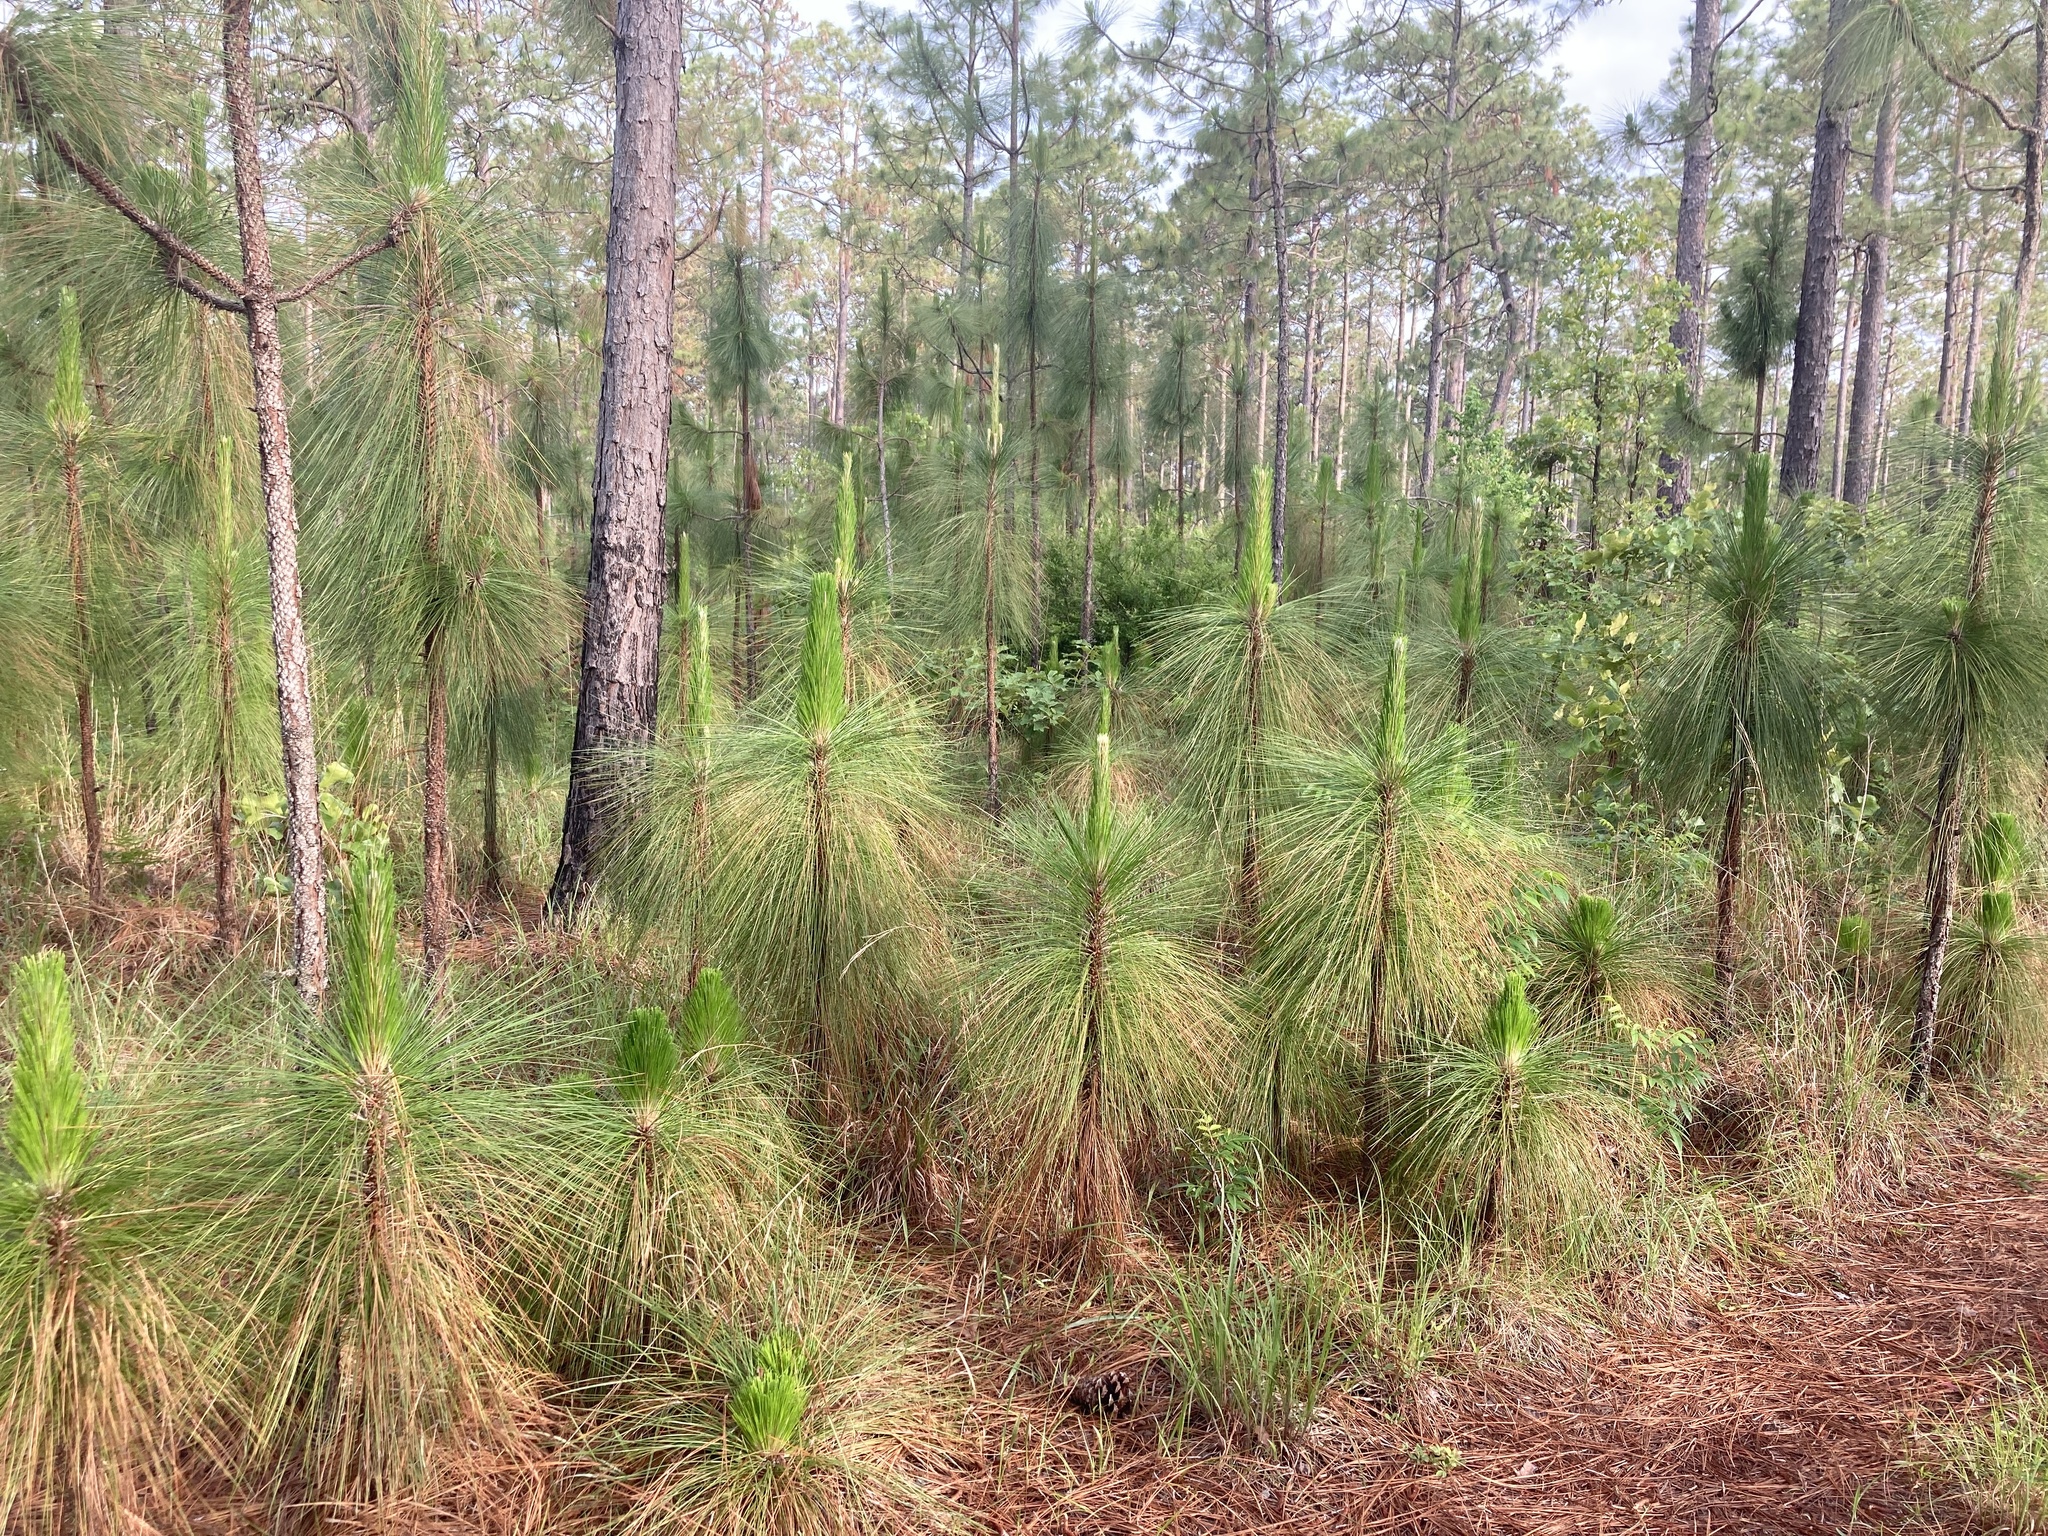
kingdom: Plantae
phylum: Tracheophyta
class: Pinopsida
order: Pinales
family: Pinaceae
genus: Pinus
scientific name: Pinus palustris
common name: Longleaf pine
